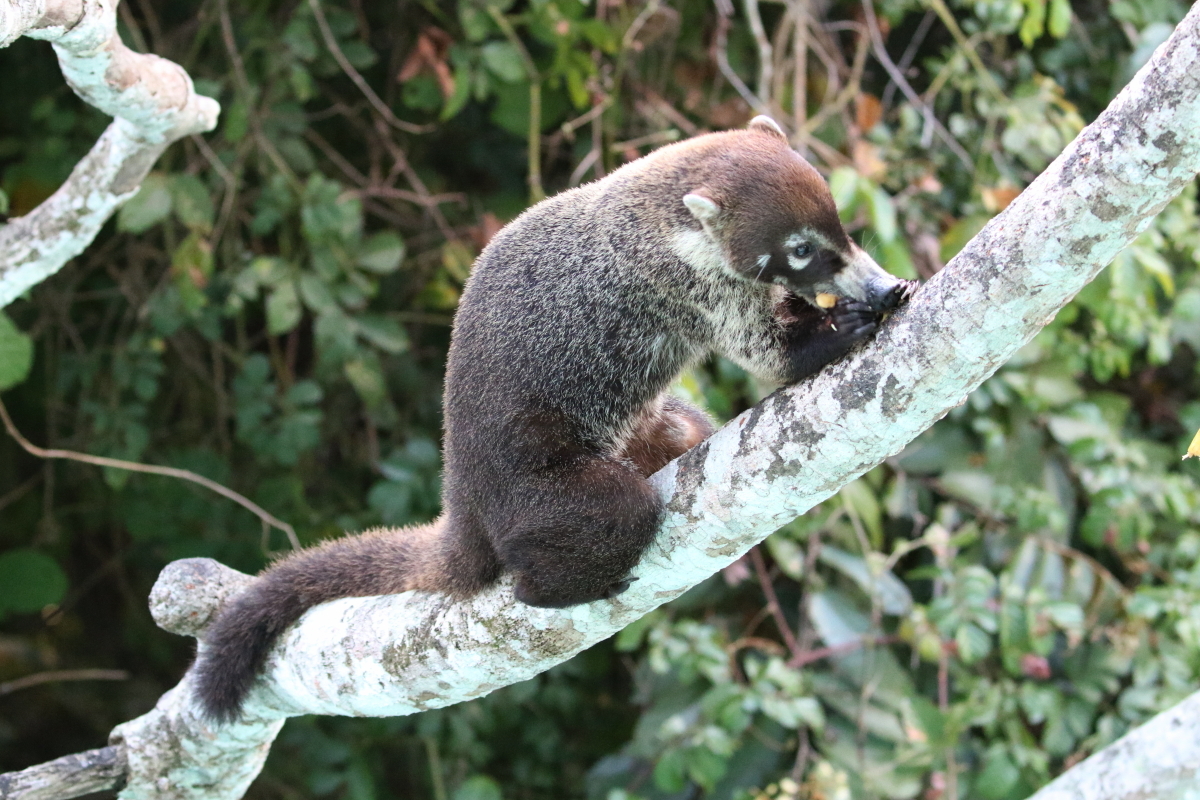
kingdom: Animalia
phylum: Chordata
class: Mammalia
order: Carnivora
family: Procyonidae
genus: Nasua
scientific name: Nasua narica
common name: White-nosed coati
